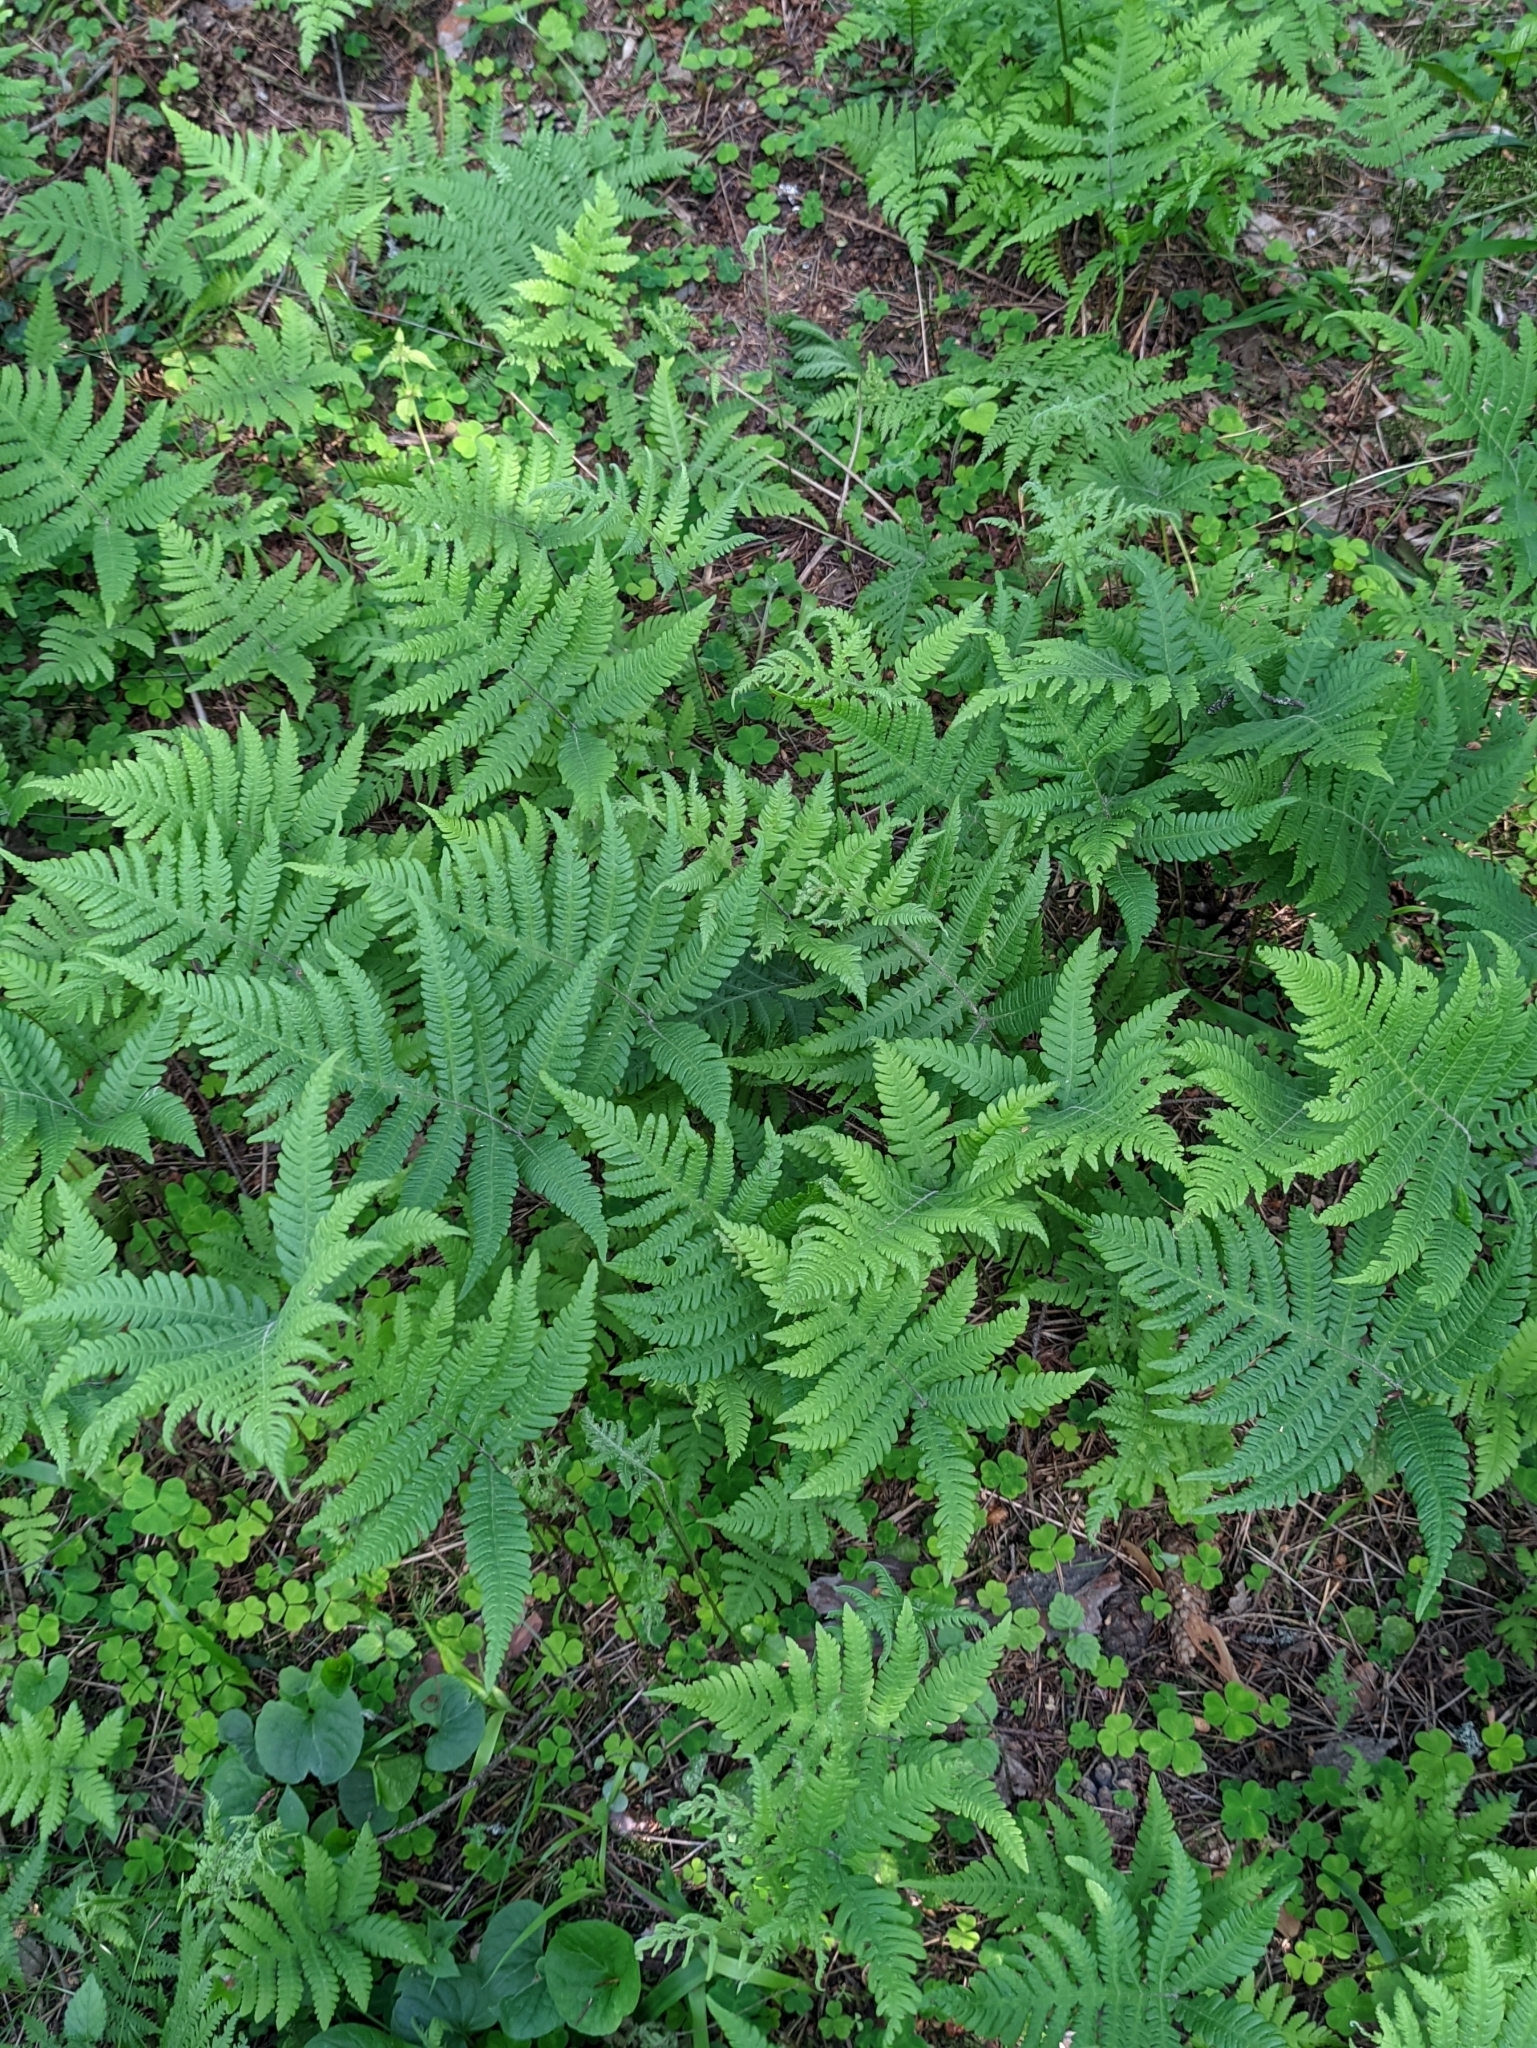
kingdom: Plantae
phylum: Tracheophyta
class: Polypodiopsida
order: Polypodiales
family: Thelypteridaceae
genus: Phegopteris
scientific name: Phegopteris connectilis
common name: Beech fern
